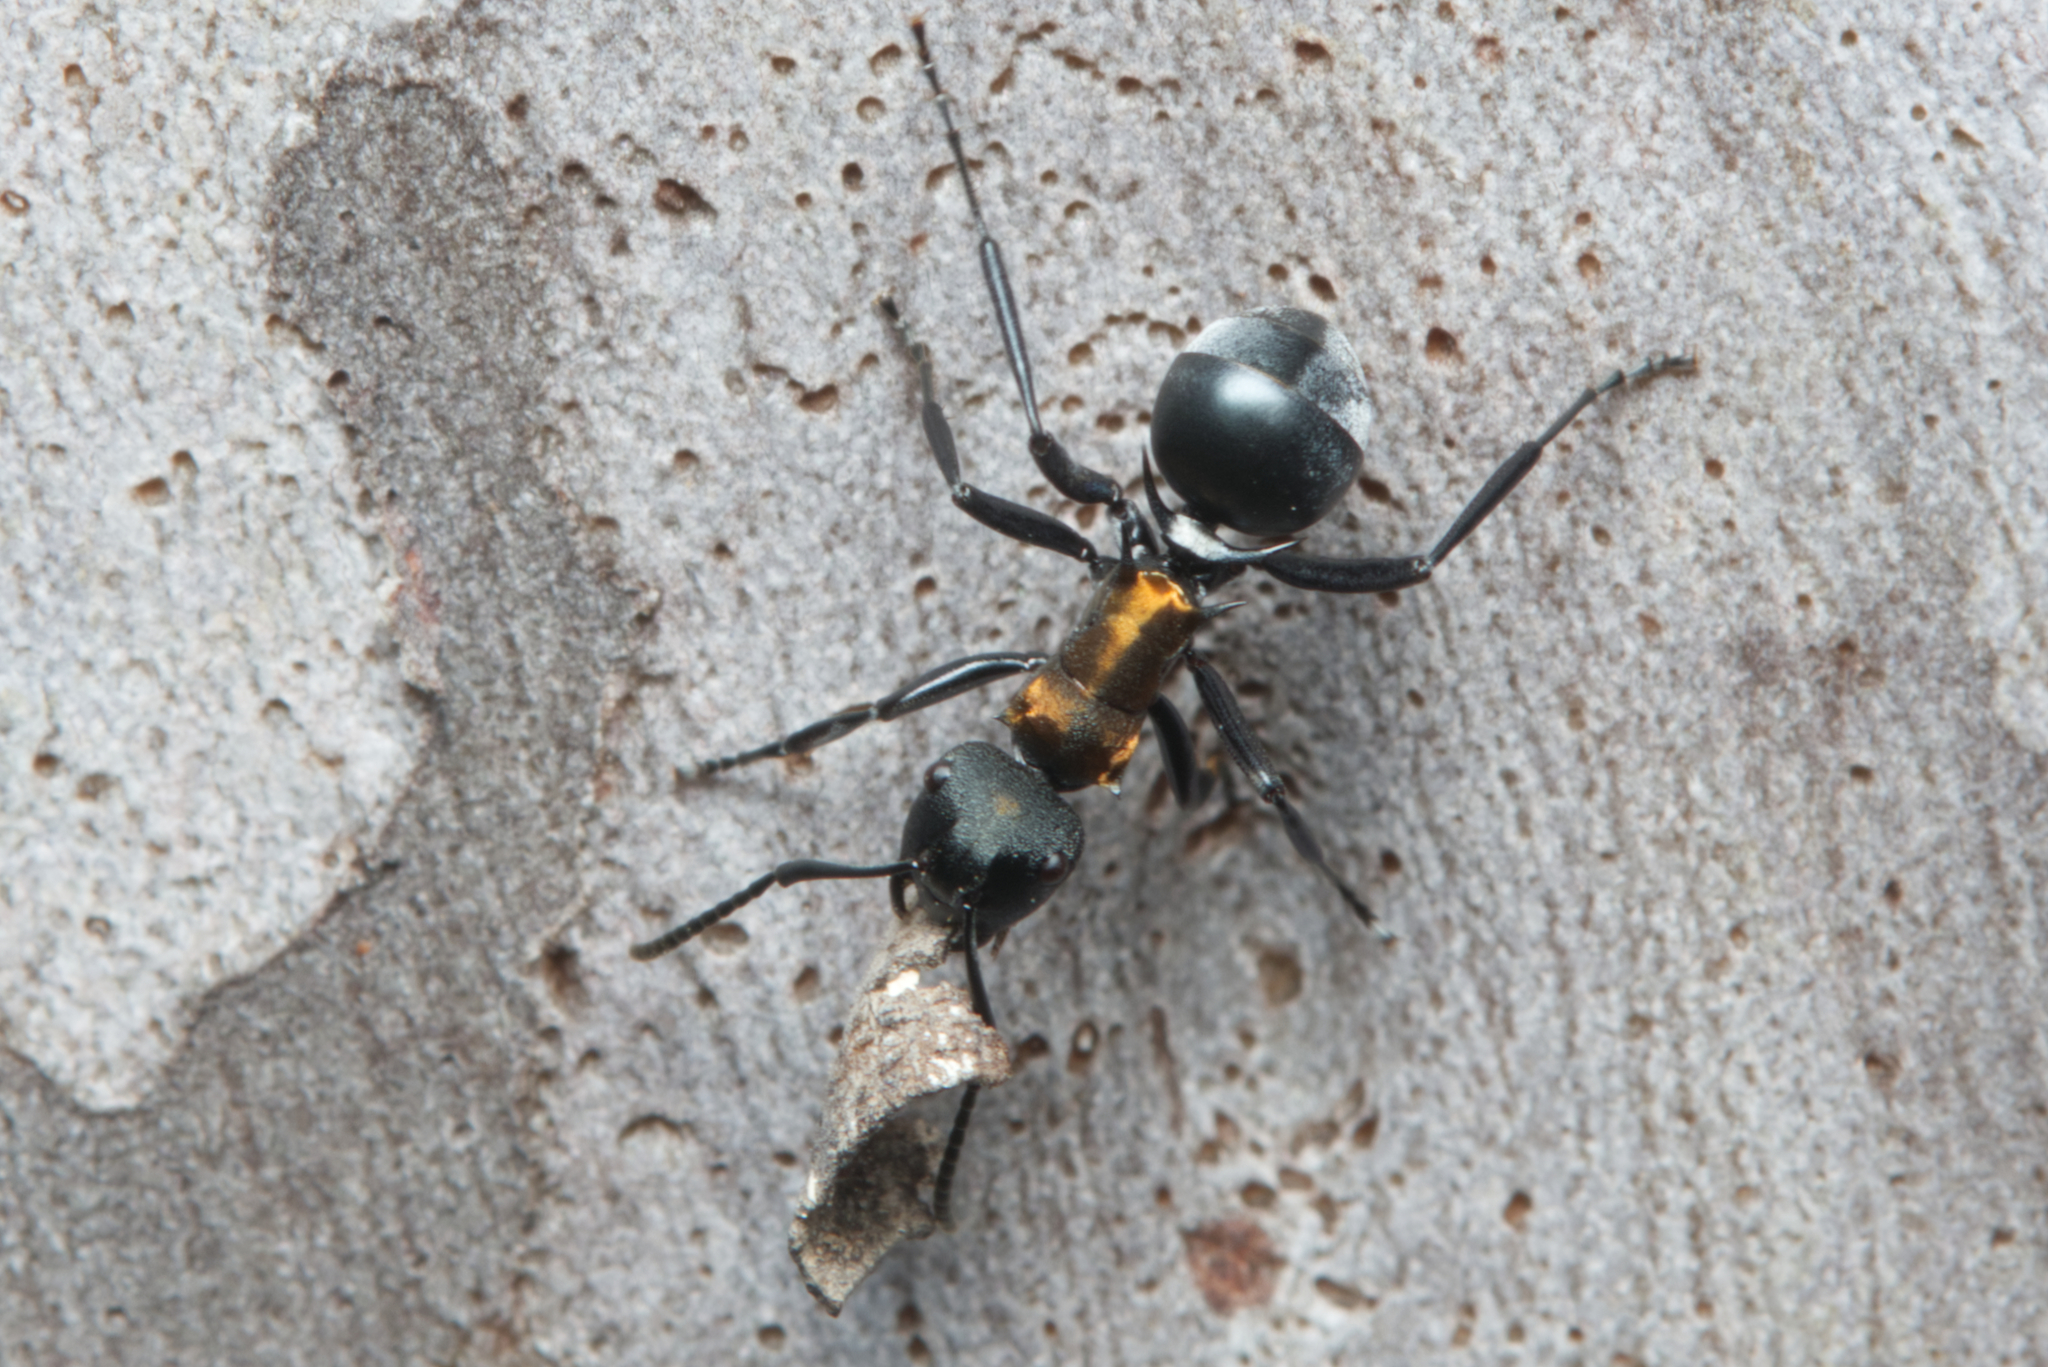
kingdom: Animalia
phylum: Arthropoda
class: Insecta
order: Hymenoptera
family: Formicidae
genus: Polyrhachis
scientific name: Polyrhachis ornata
